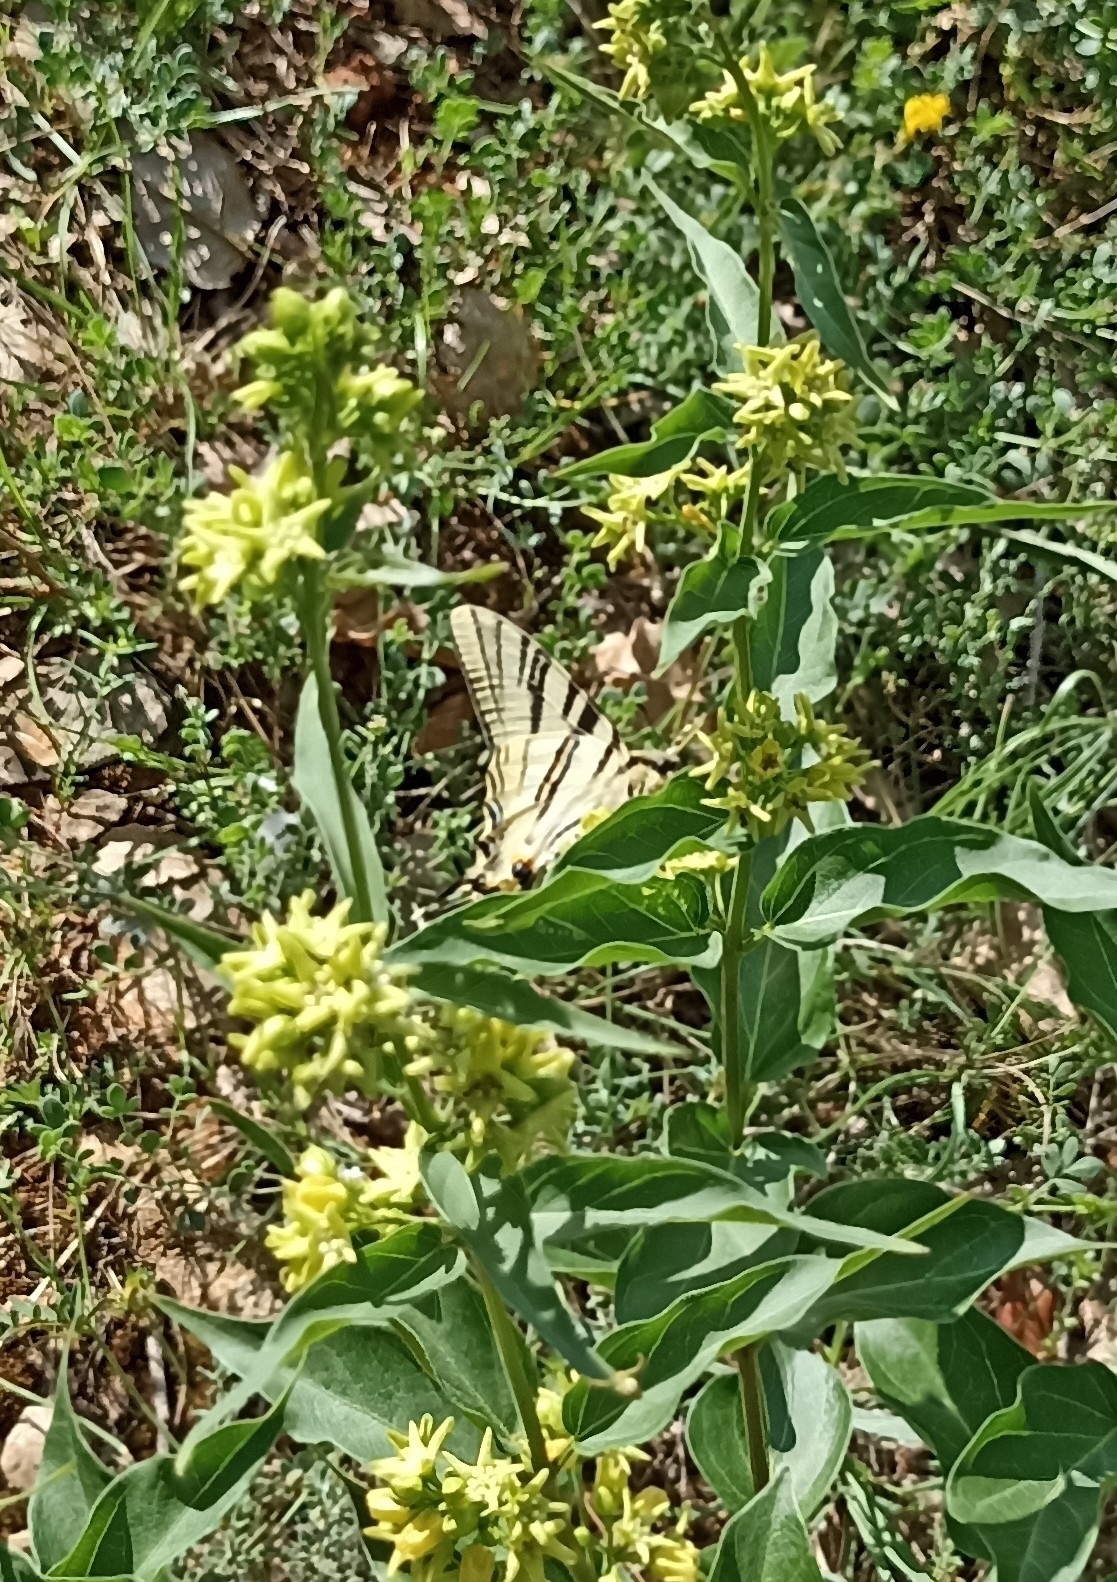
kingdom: Animalia
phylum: Arthropoda
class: Insecta
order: Lepidoptera
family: Papilionidae
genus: Iphiclides
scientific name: Iphiclides podalirius
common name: Scarce swallowtail
